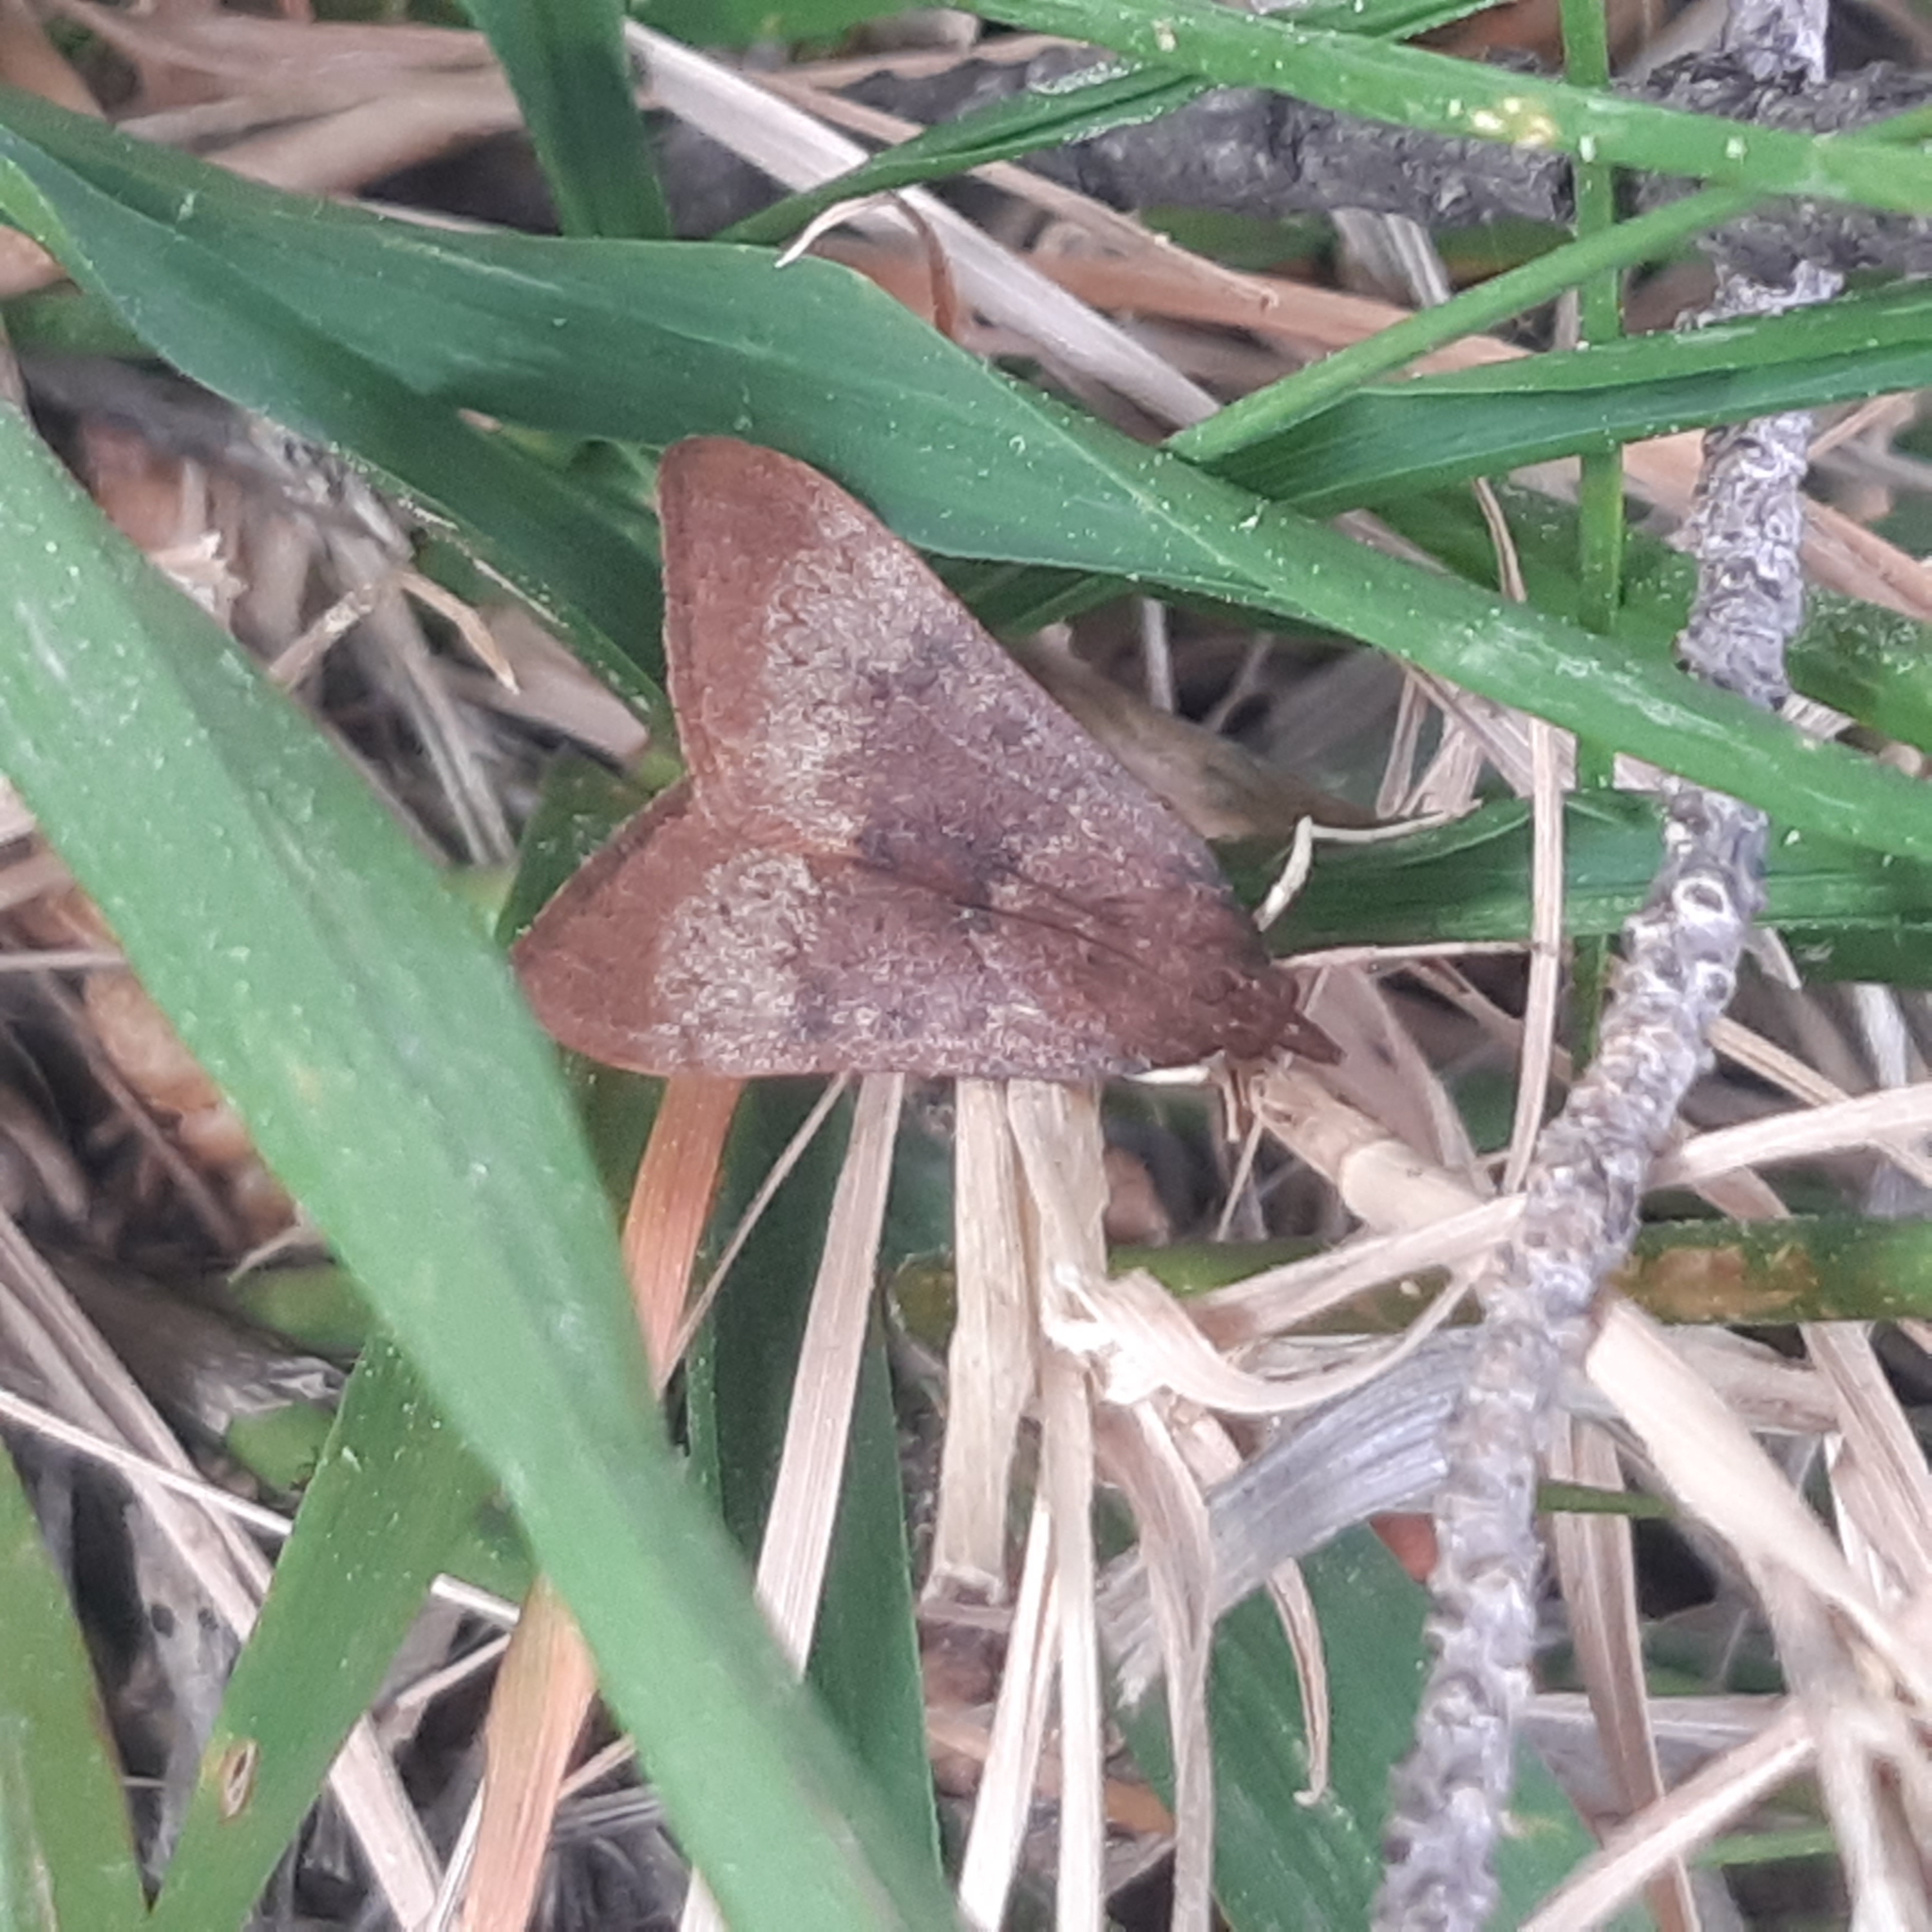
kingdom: Animalia
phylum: Arthropoda
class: Insecta
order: Lepidoptera
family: Crambidae
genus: Uresiphita
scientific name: Uresiphita gilvata
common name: Yellow-underwing pearl
